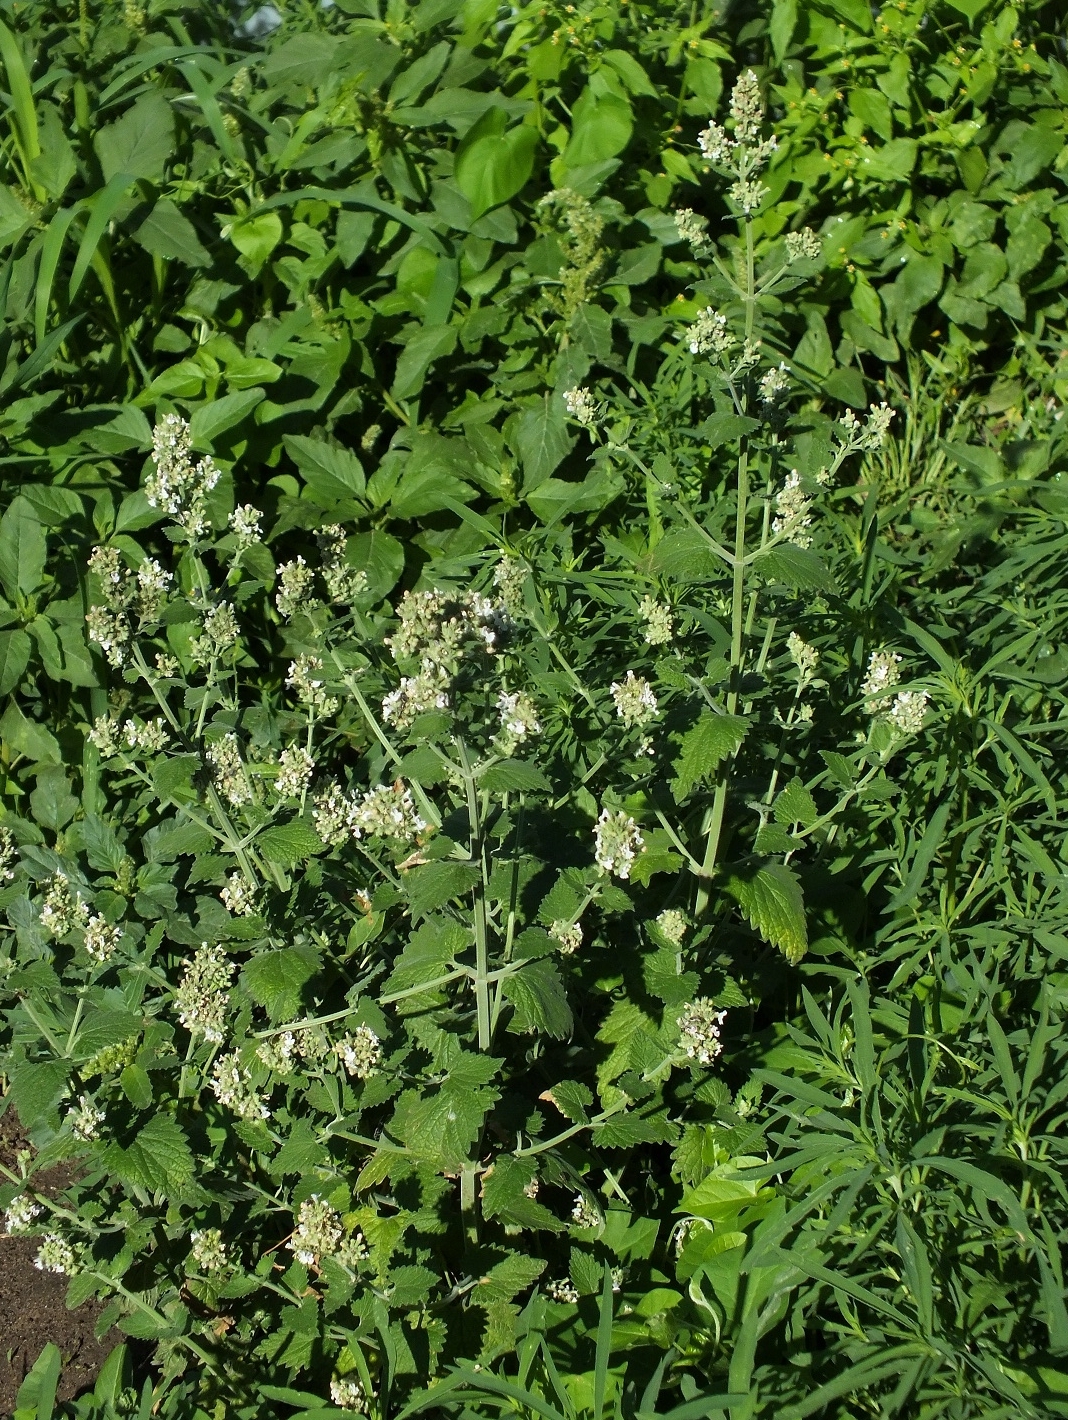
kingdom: Plantae
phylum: Tracheophyta
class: Magnoliopsida
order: Lamiales
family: Lamiaceae
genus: Nepeta
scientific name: Nepeta cataria
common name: Catnip
